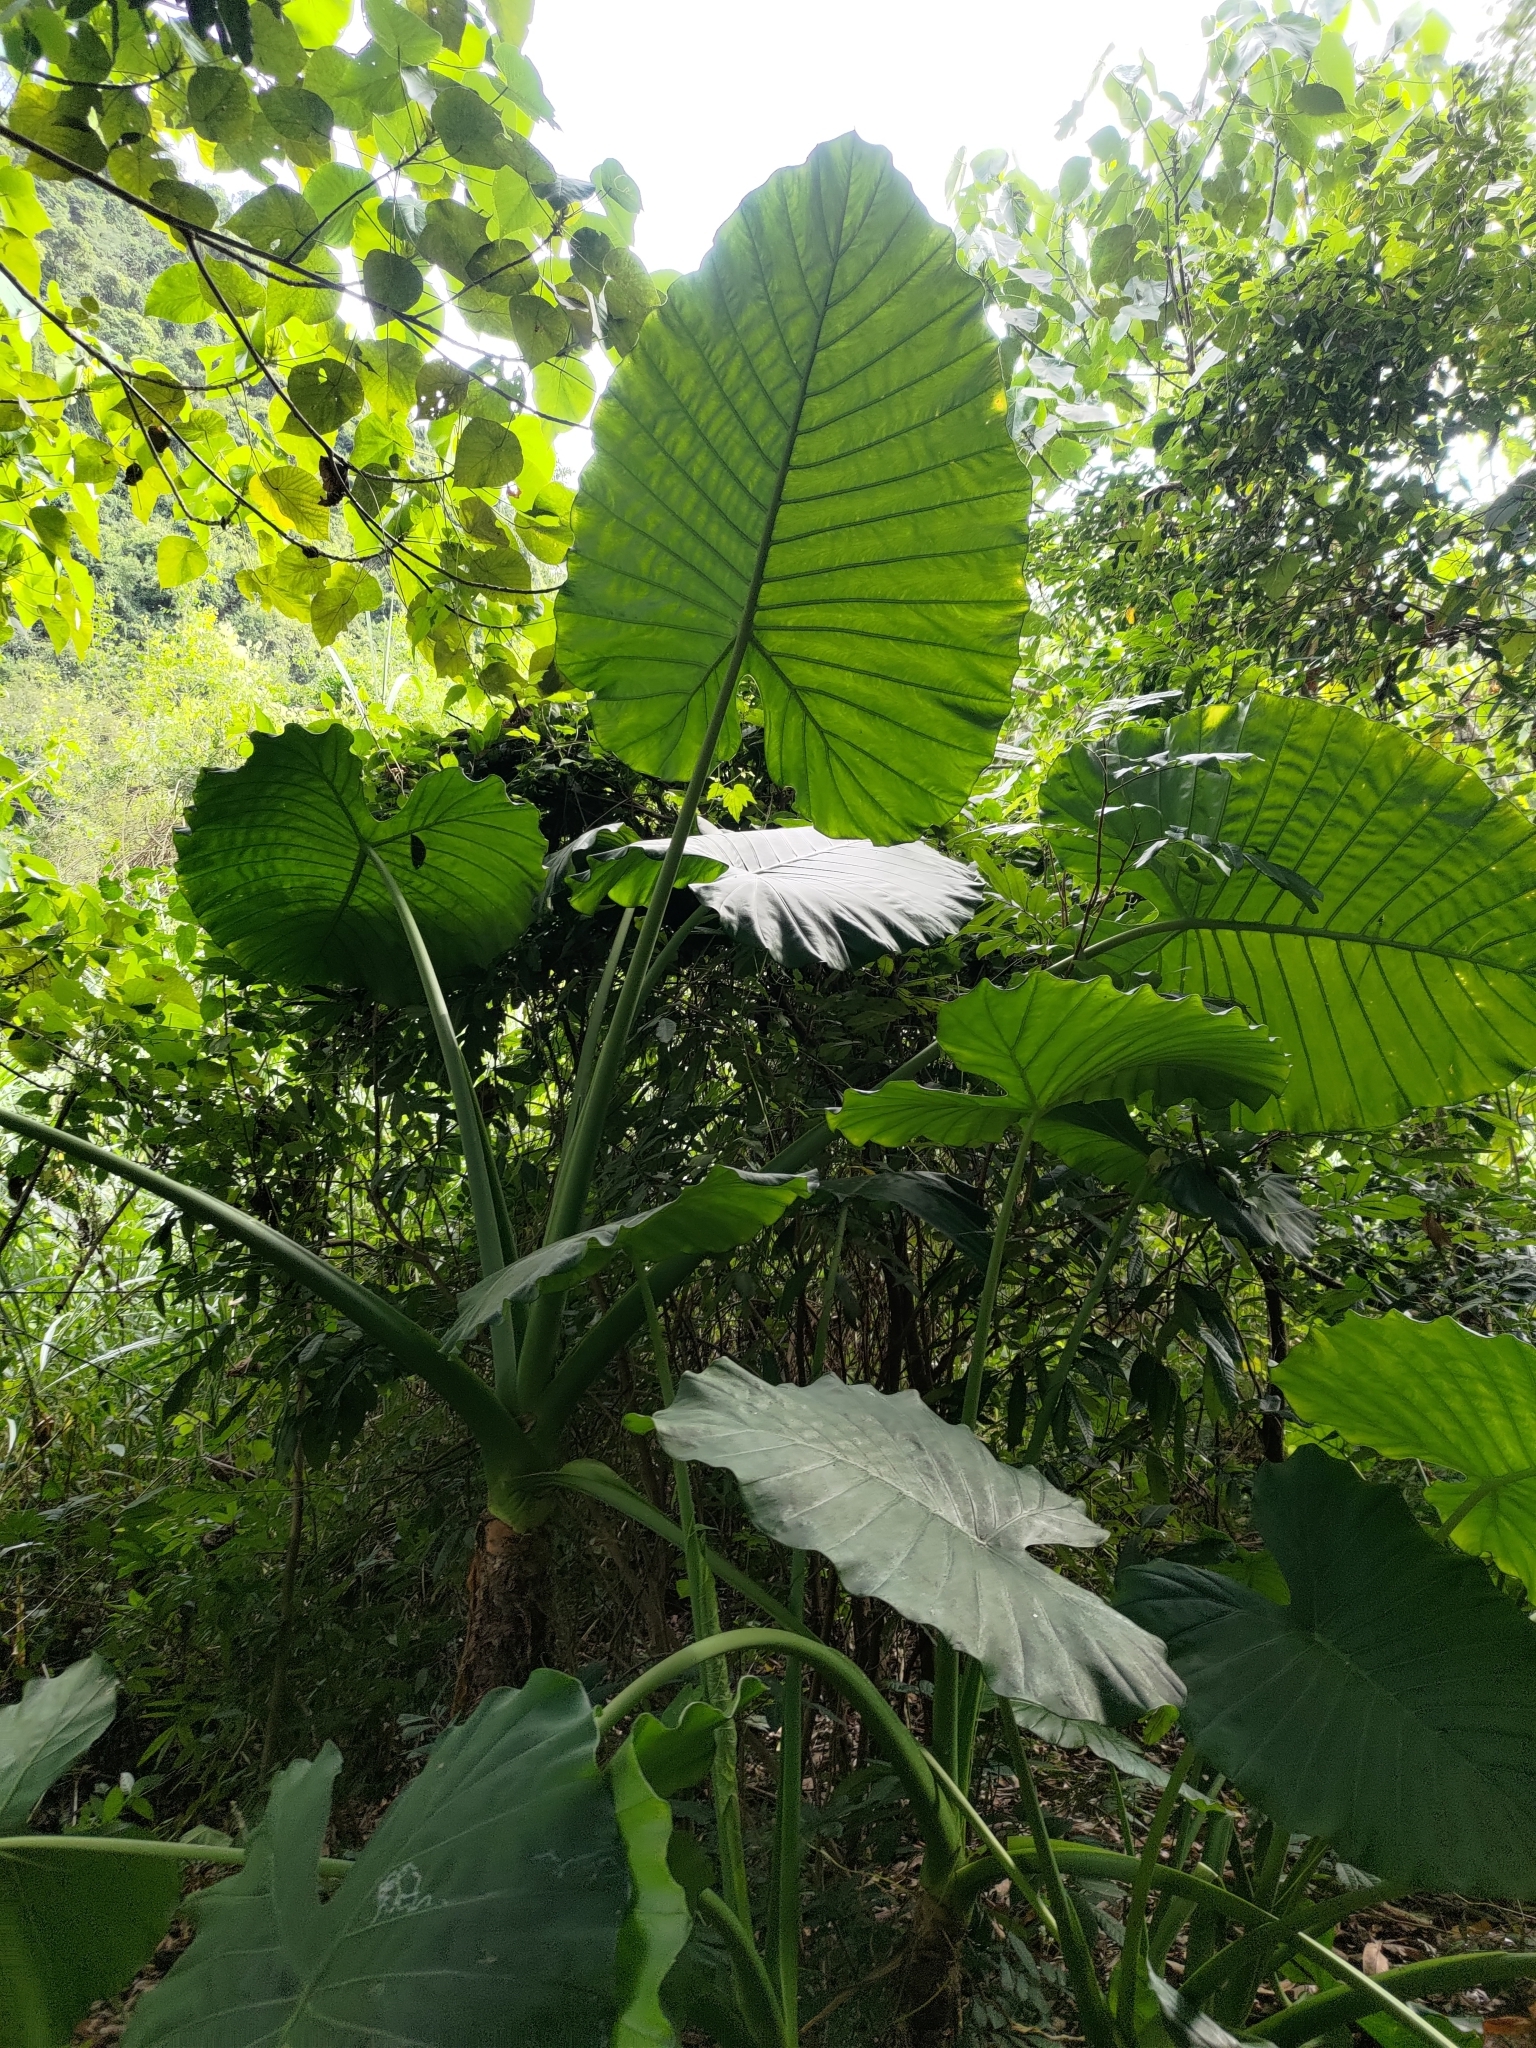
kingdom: Plantae
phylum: Tracheophyta
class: Liliopsida
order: Alismatales
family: Araceae
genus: Alocasia
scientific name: Alocasia odora
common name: Asian taro
